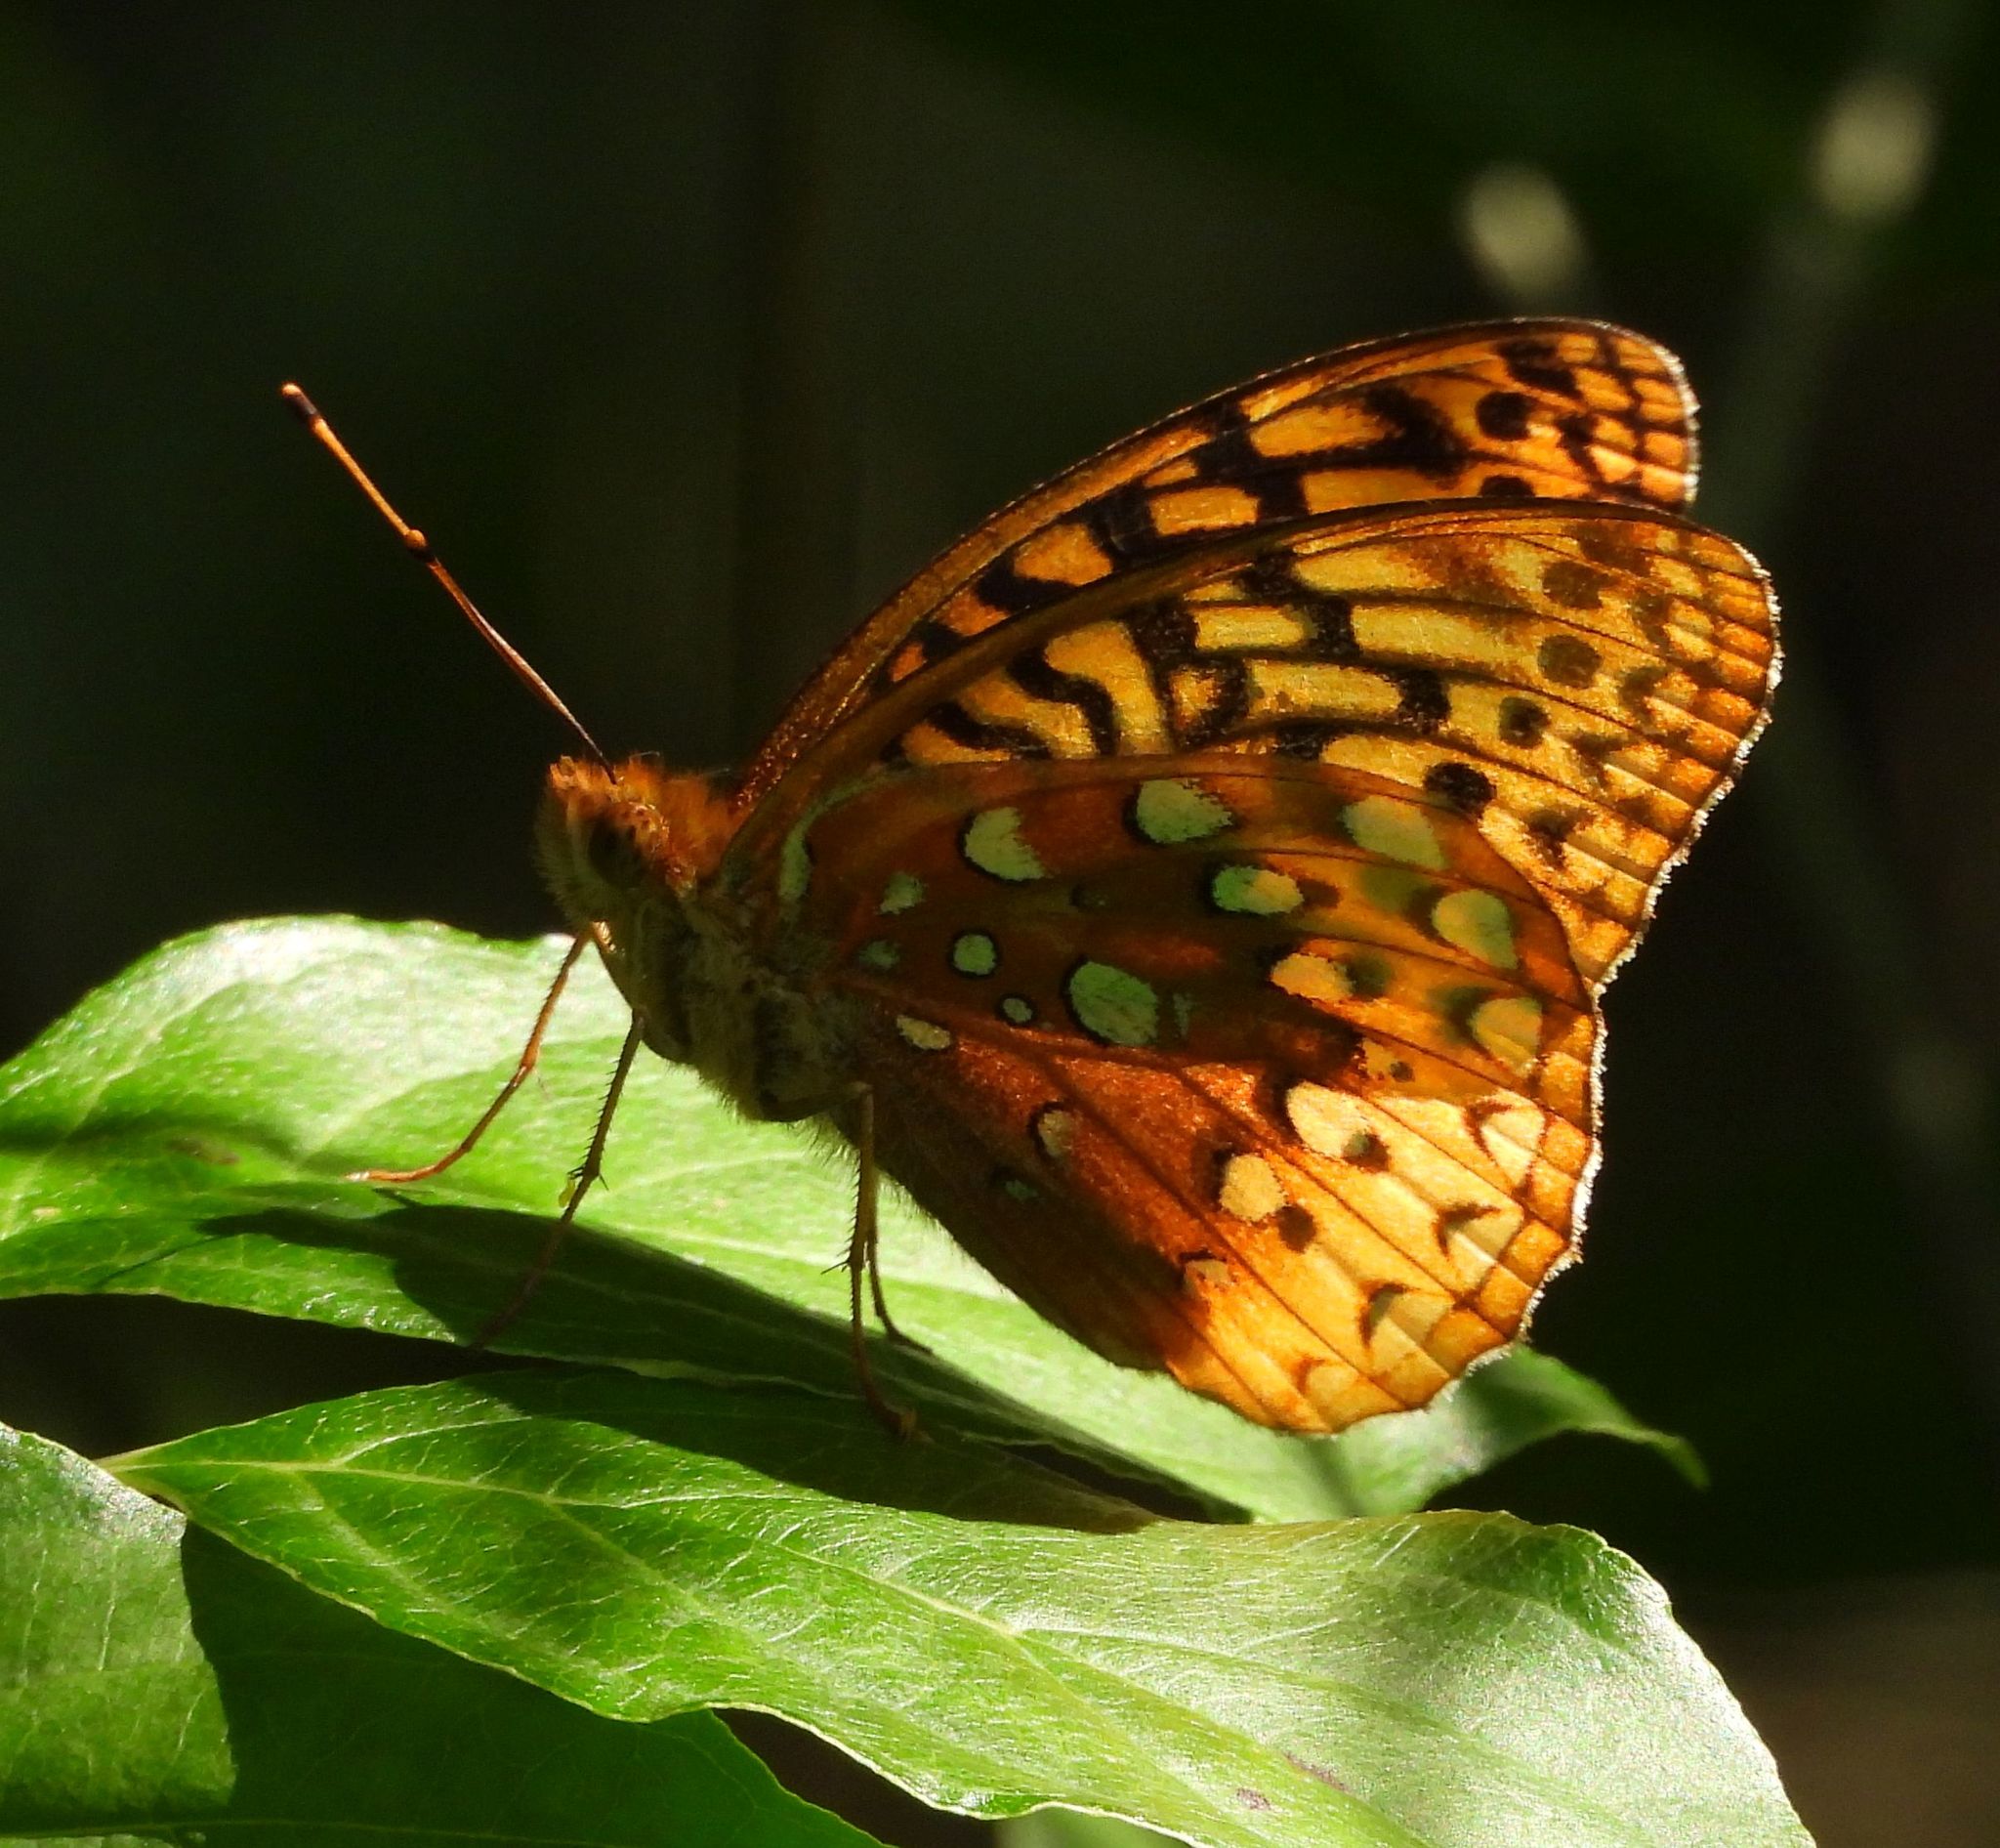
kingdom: Animalia
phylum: Arthropoda
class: Insecta
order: Lepidoptera
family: Nymphalidae
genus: Speyeria
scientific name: Speyeria cybele
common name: Great spangled fritillary
